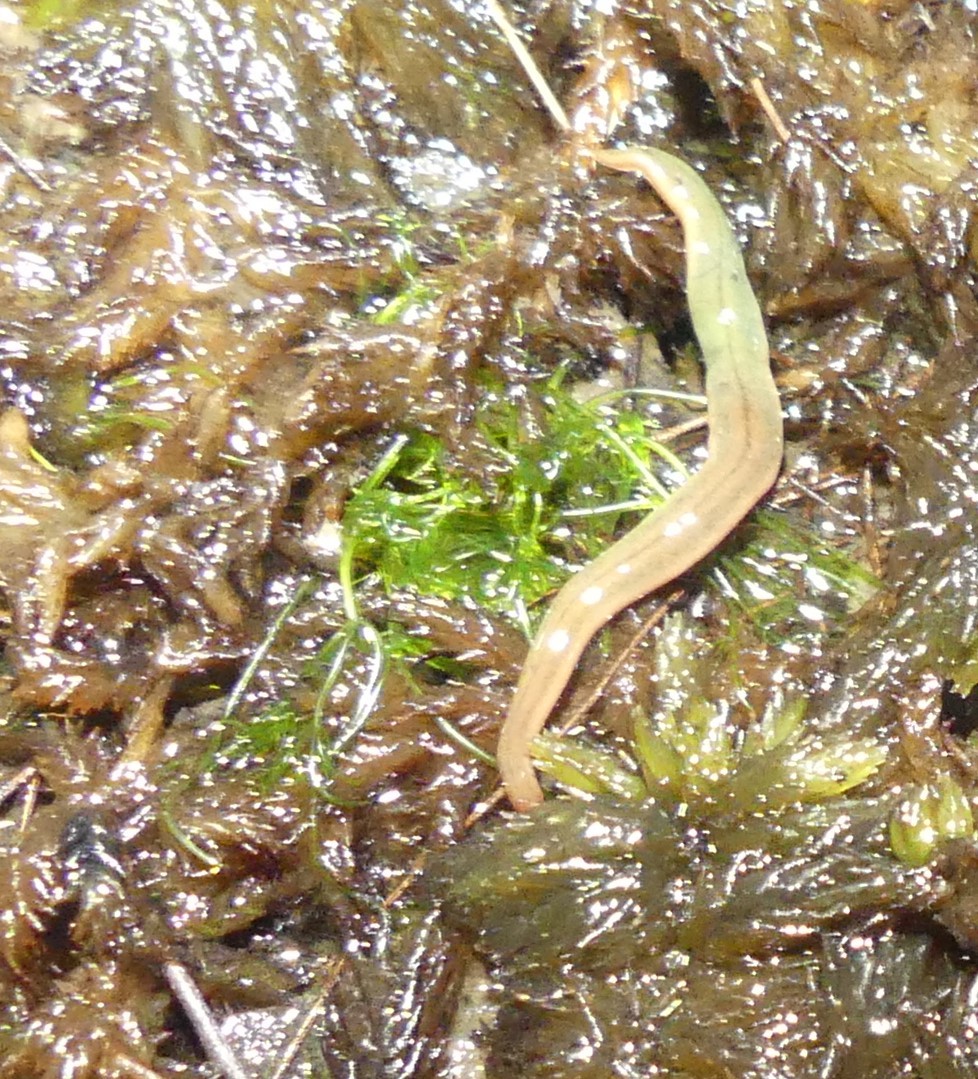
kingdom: Animalia
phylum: Nemertea
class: Hoplonemertea
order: Monostilifera
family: Acteonemertidae
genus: Argonemertes
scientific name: Argonemertes australiensis
